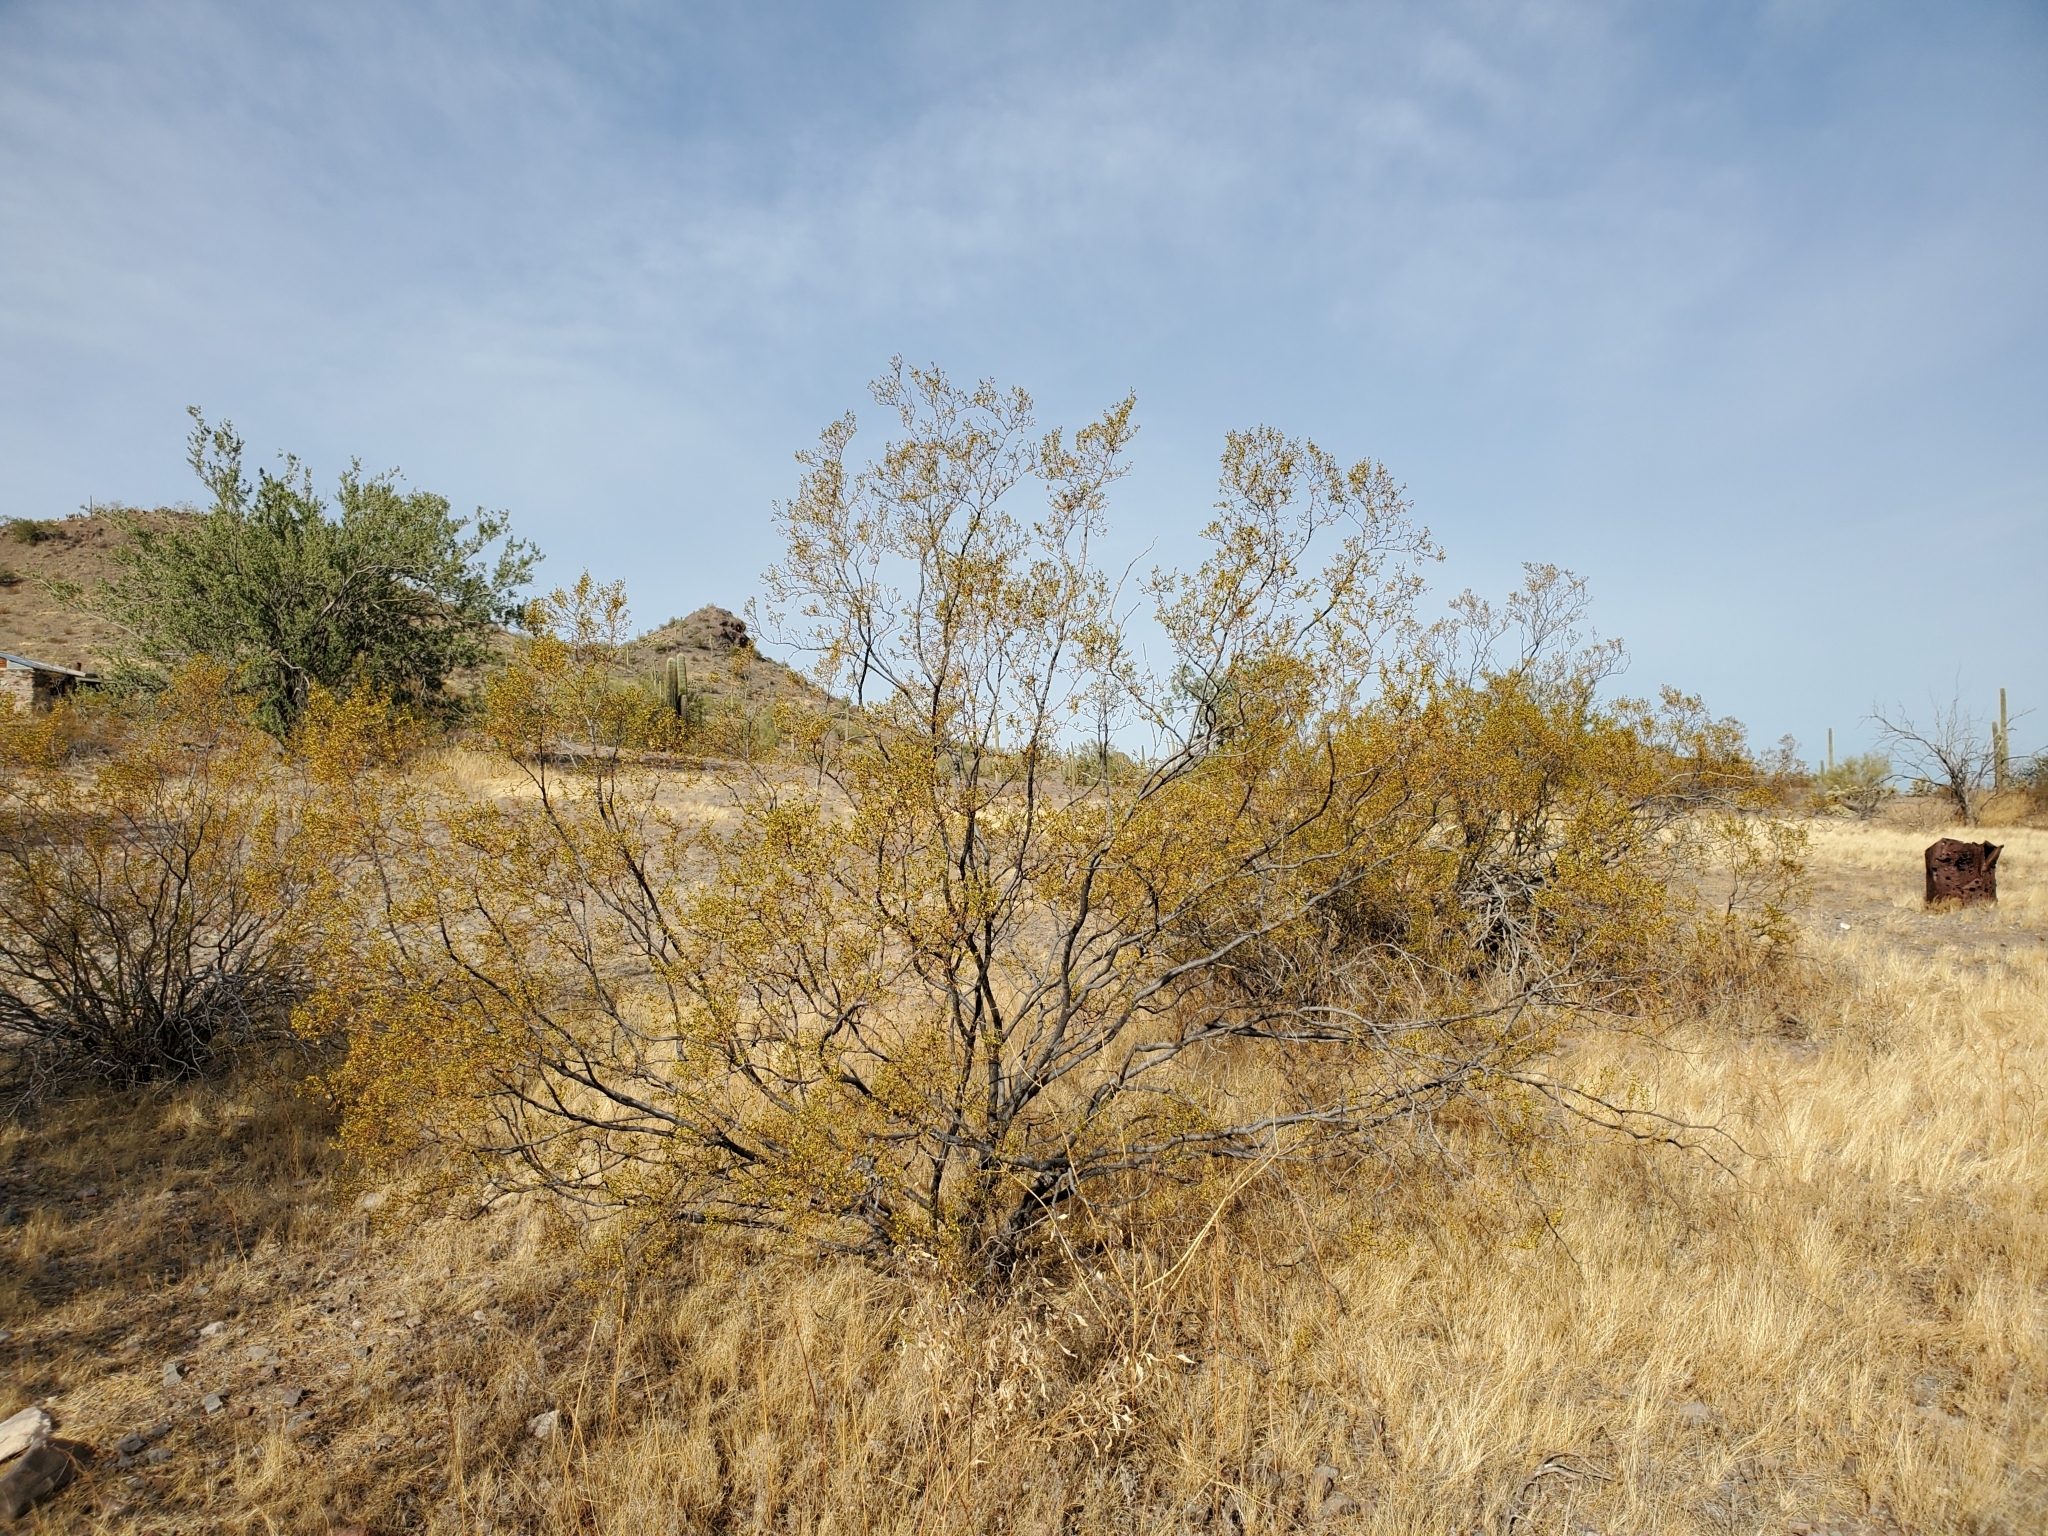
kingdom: Plantae
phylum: Tracheophyta
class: Magnoliopsida
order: Zygophyllales
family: Zygophyllaceae
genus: Larrea
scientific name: Larrea tridentata
